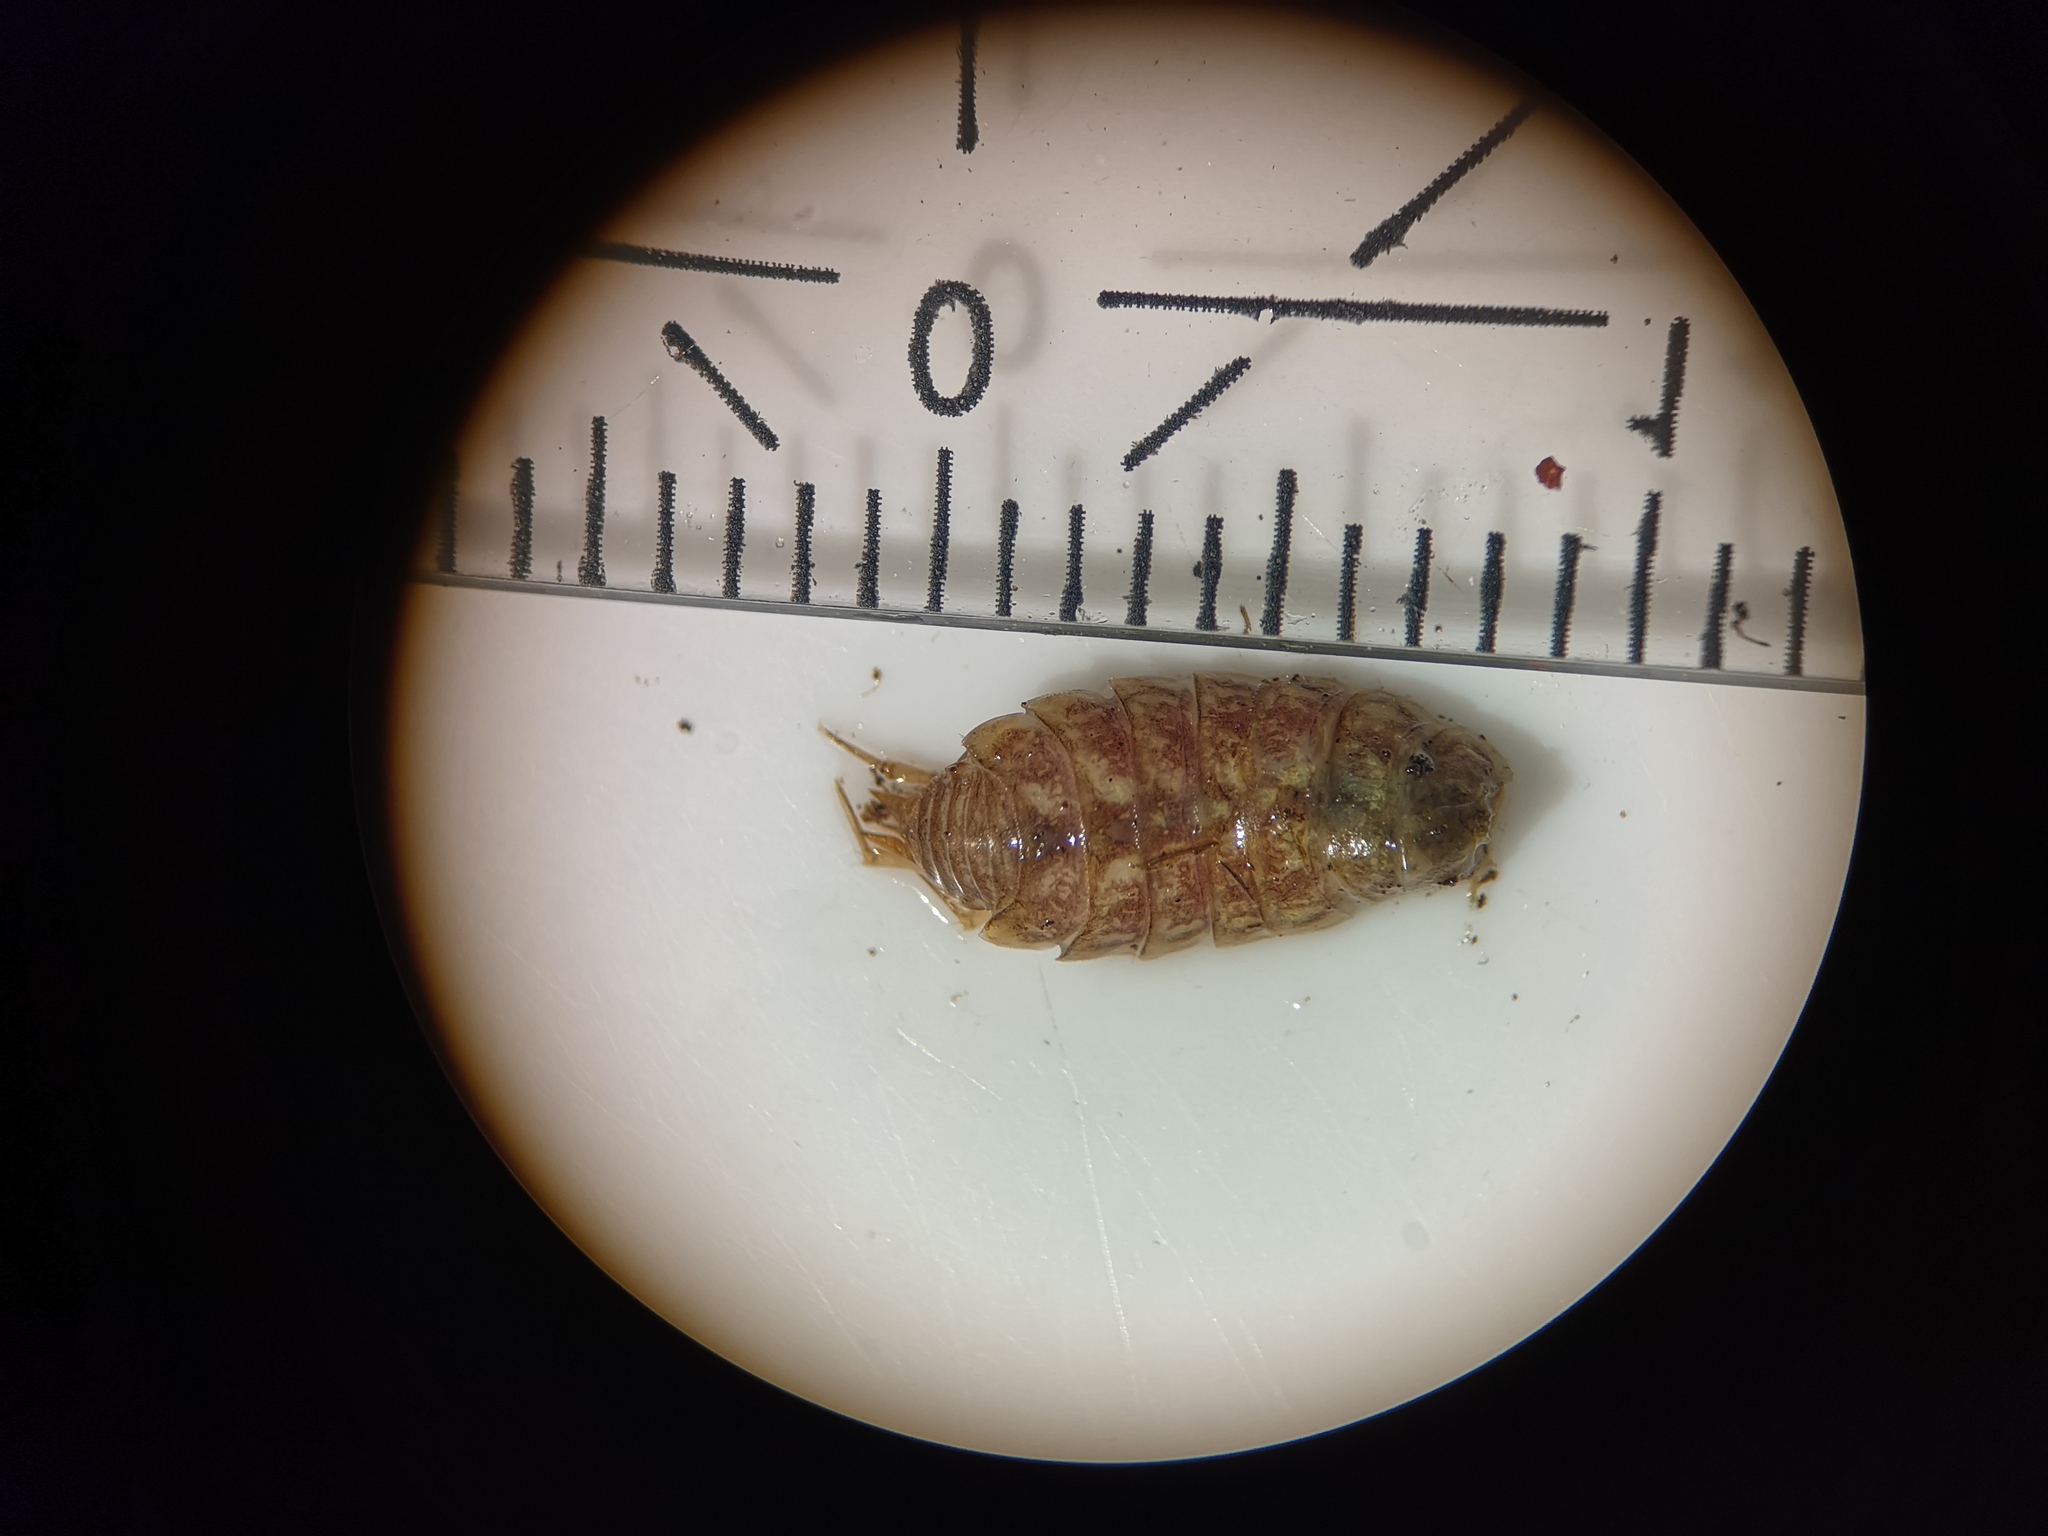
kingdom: Animalia
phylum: Arthropoda
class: Malacostraca
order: Isopoda
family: Philosciidae
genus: Philoscia
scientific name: Philoscia muscorum
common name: Common striped woodlouse
